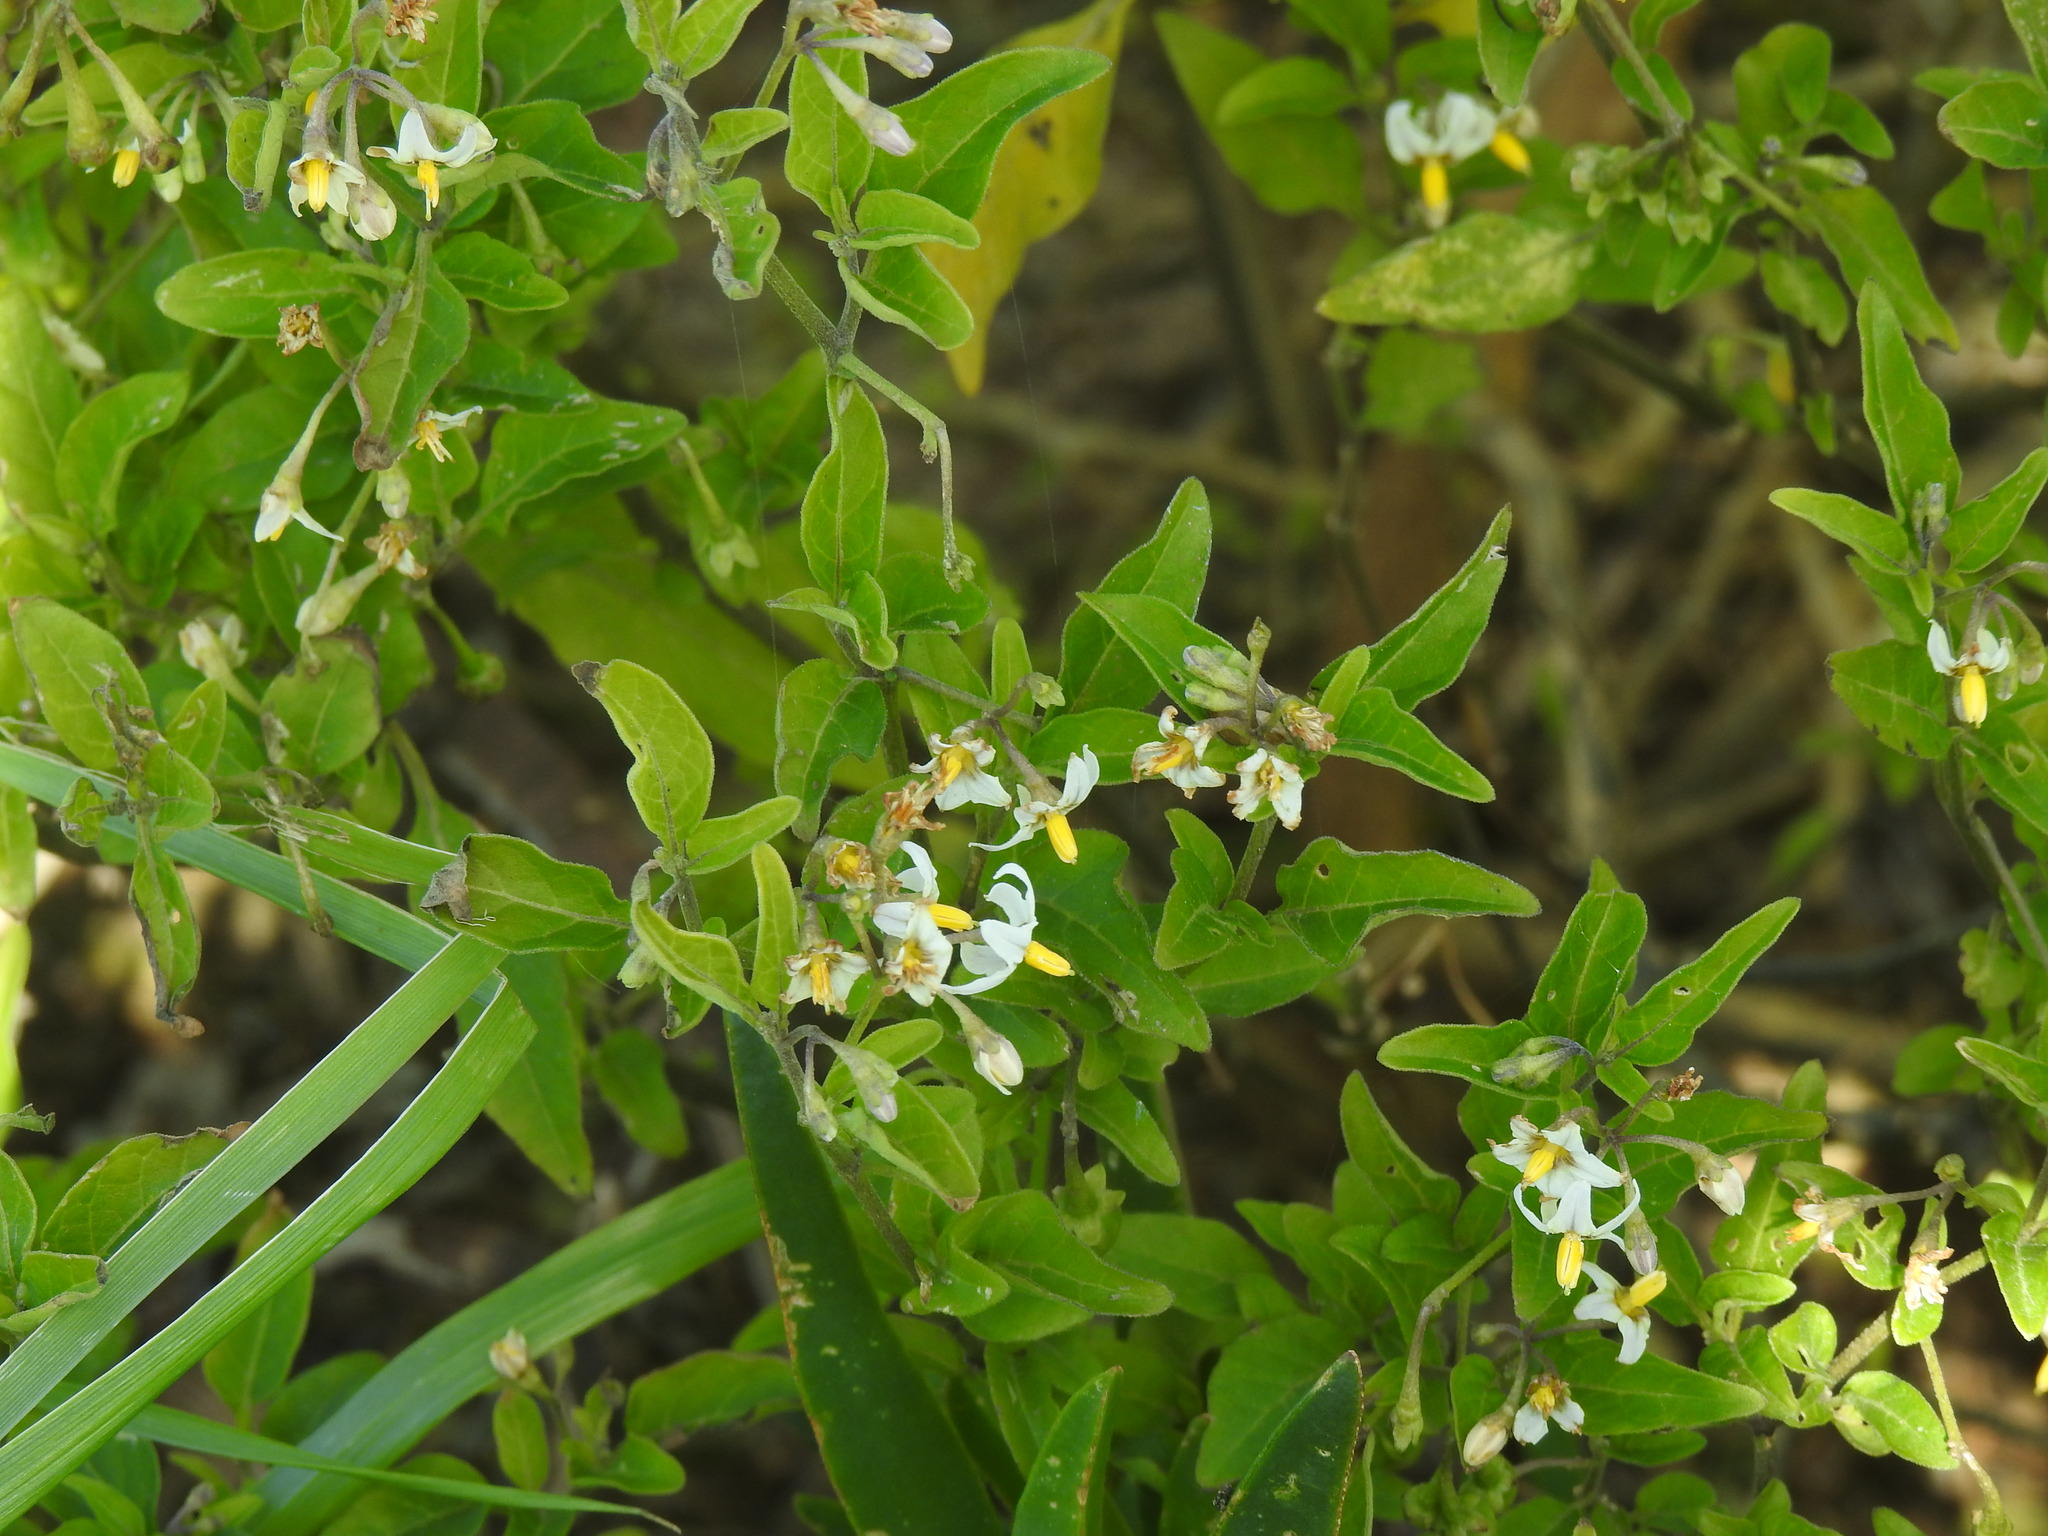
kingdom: Plantae
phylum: Tracheophyta
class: Magnoliopsida
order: Solanales
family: Solanaceae
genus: Solanum
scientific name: Solanum chenopodioides
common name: Tall nightshade
